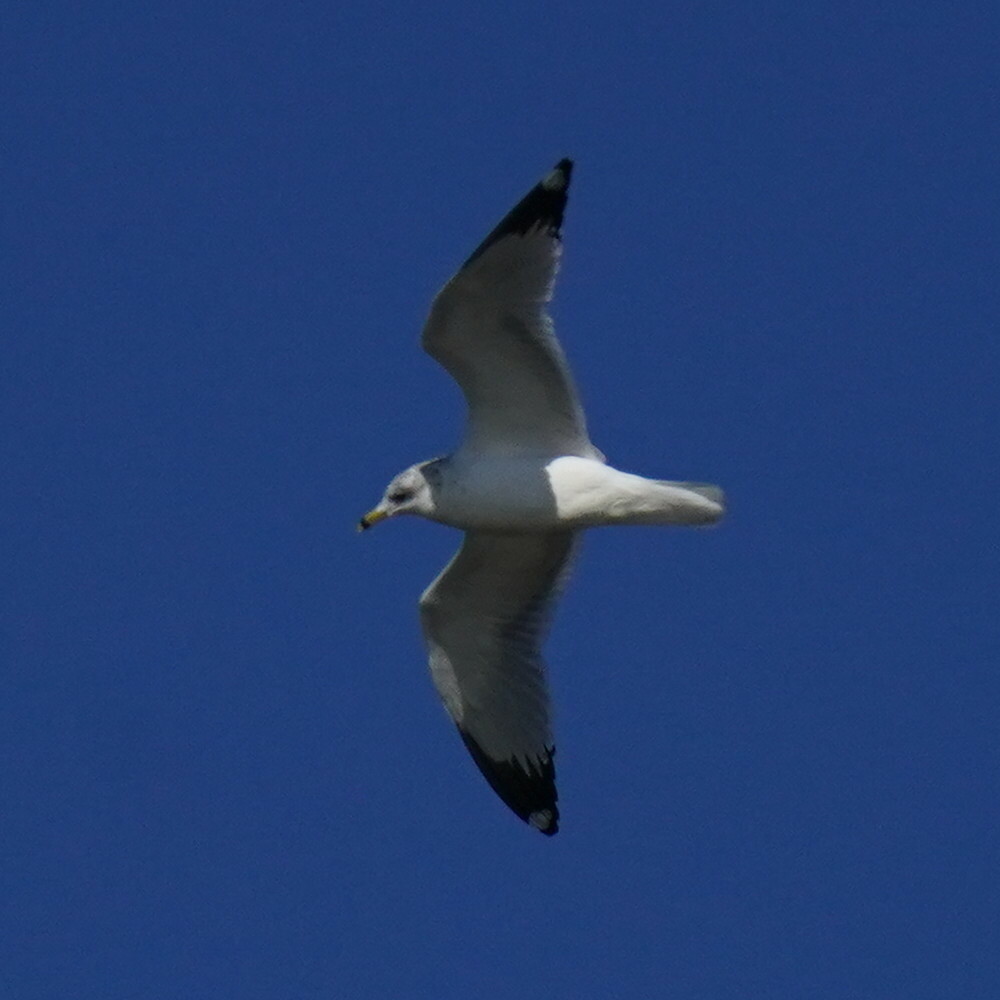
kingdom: Animalia
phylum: Chordata
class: Aves
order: Charadriiformes
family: Laridae
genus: Larus
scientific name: Larus delawarensis
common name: Ring-billed gull
